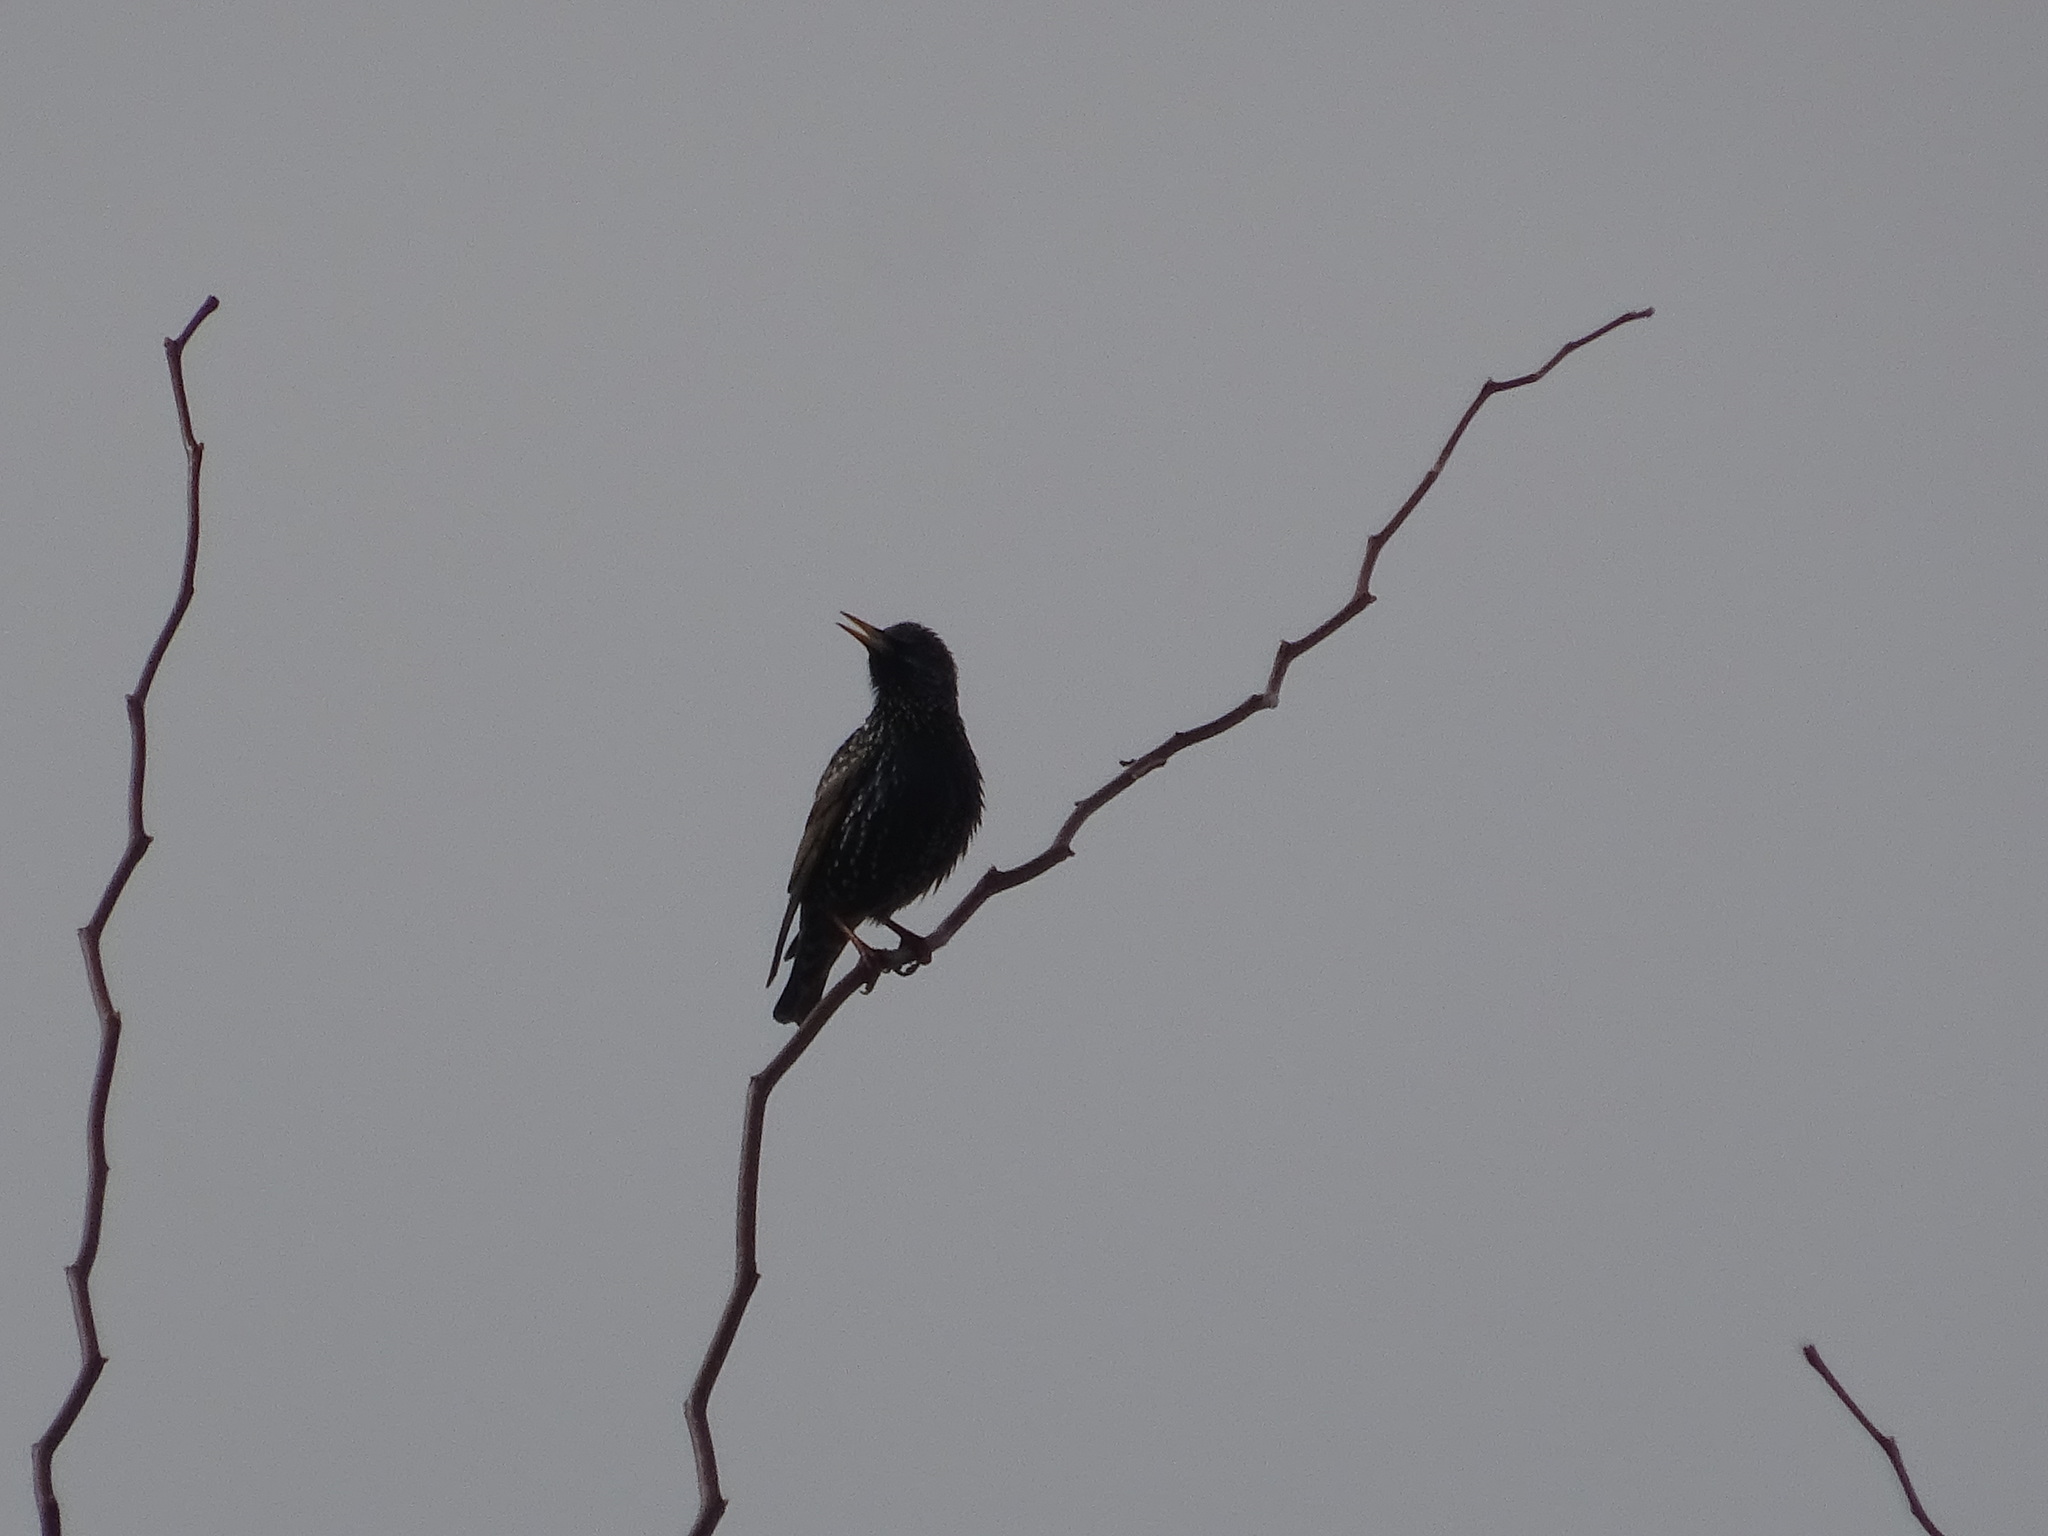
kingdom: Animalia
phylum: Chordata
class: Aves
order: Passeriformes
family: Sturnidae
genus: Sturnus
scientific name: Sturnus vulgaris
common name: Common starling
